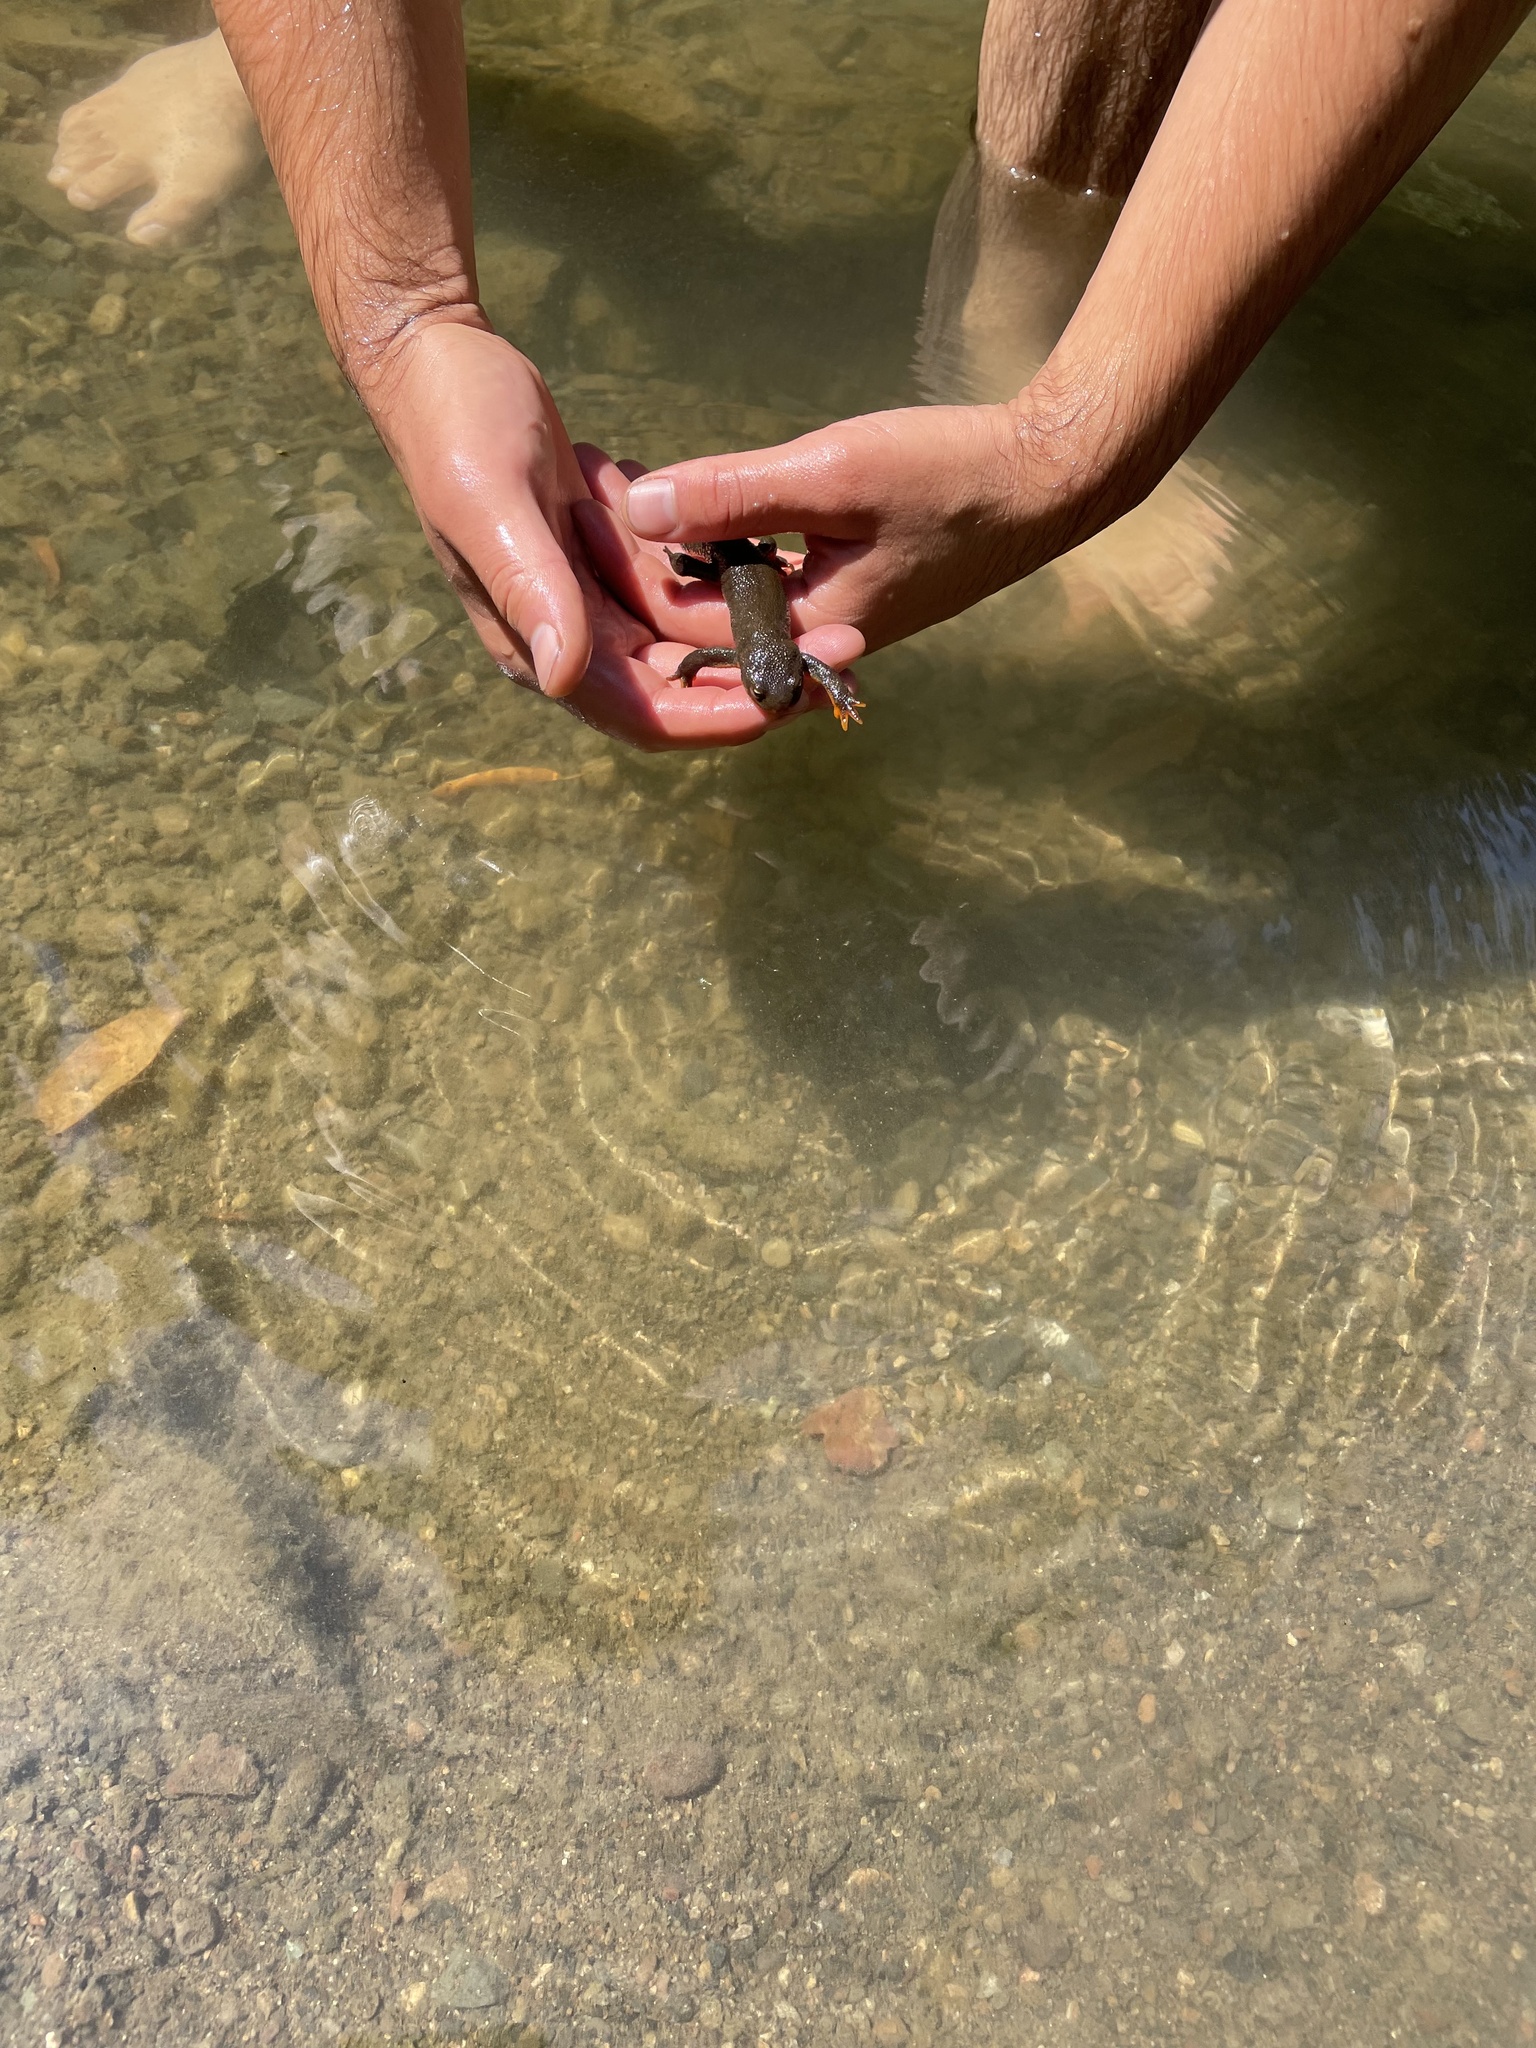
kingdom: Animalia
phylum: Chordata
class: Amphibia
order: Caudata
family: Salamandridae
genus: Taricha
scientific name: Taricha granulosa
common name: Roughskin newt
